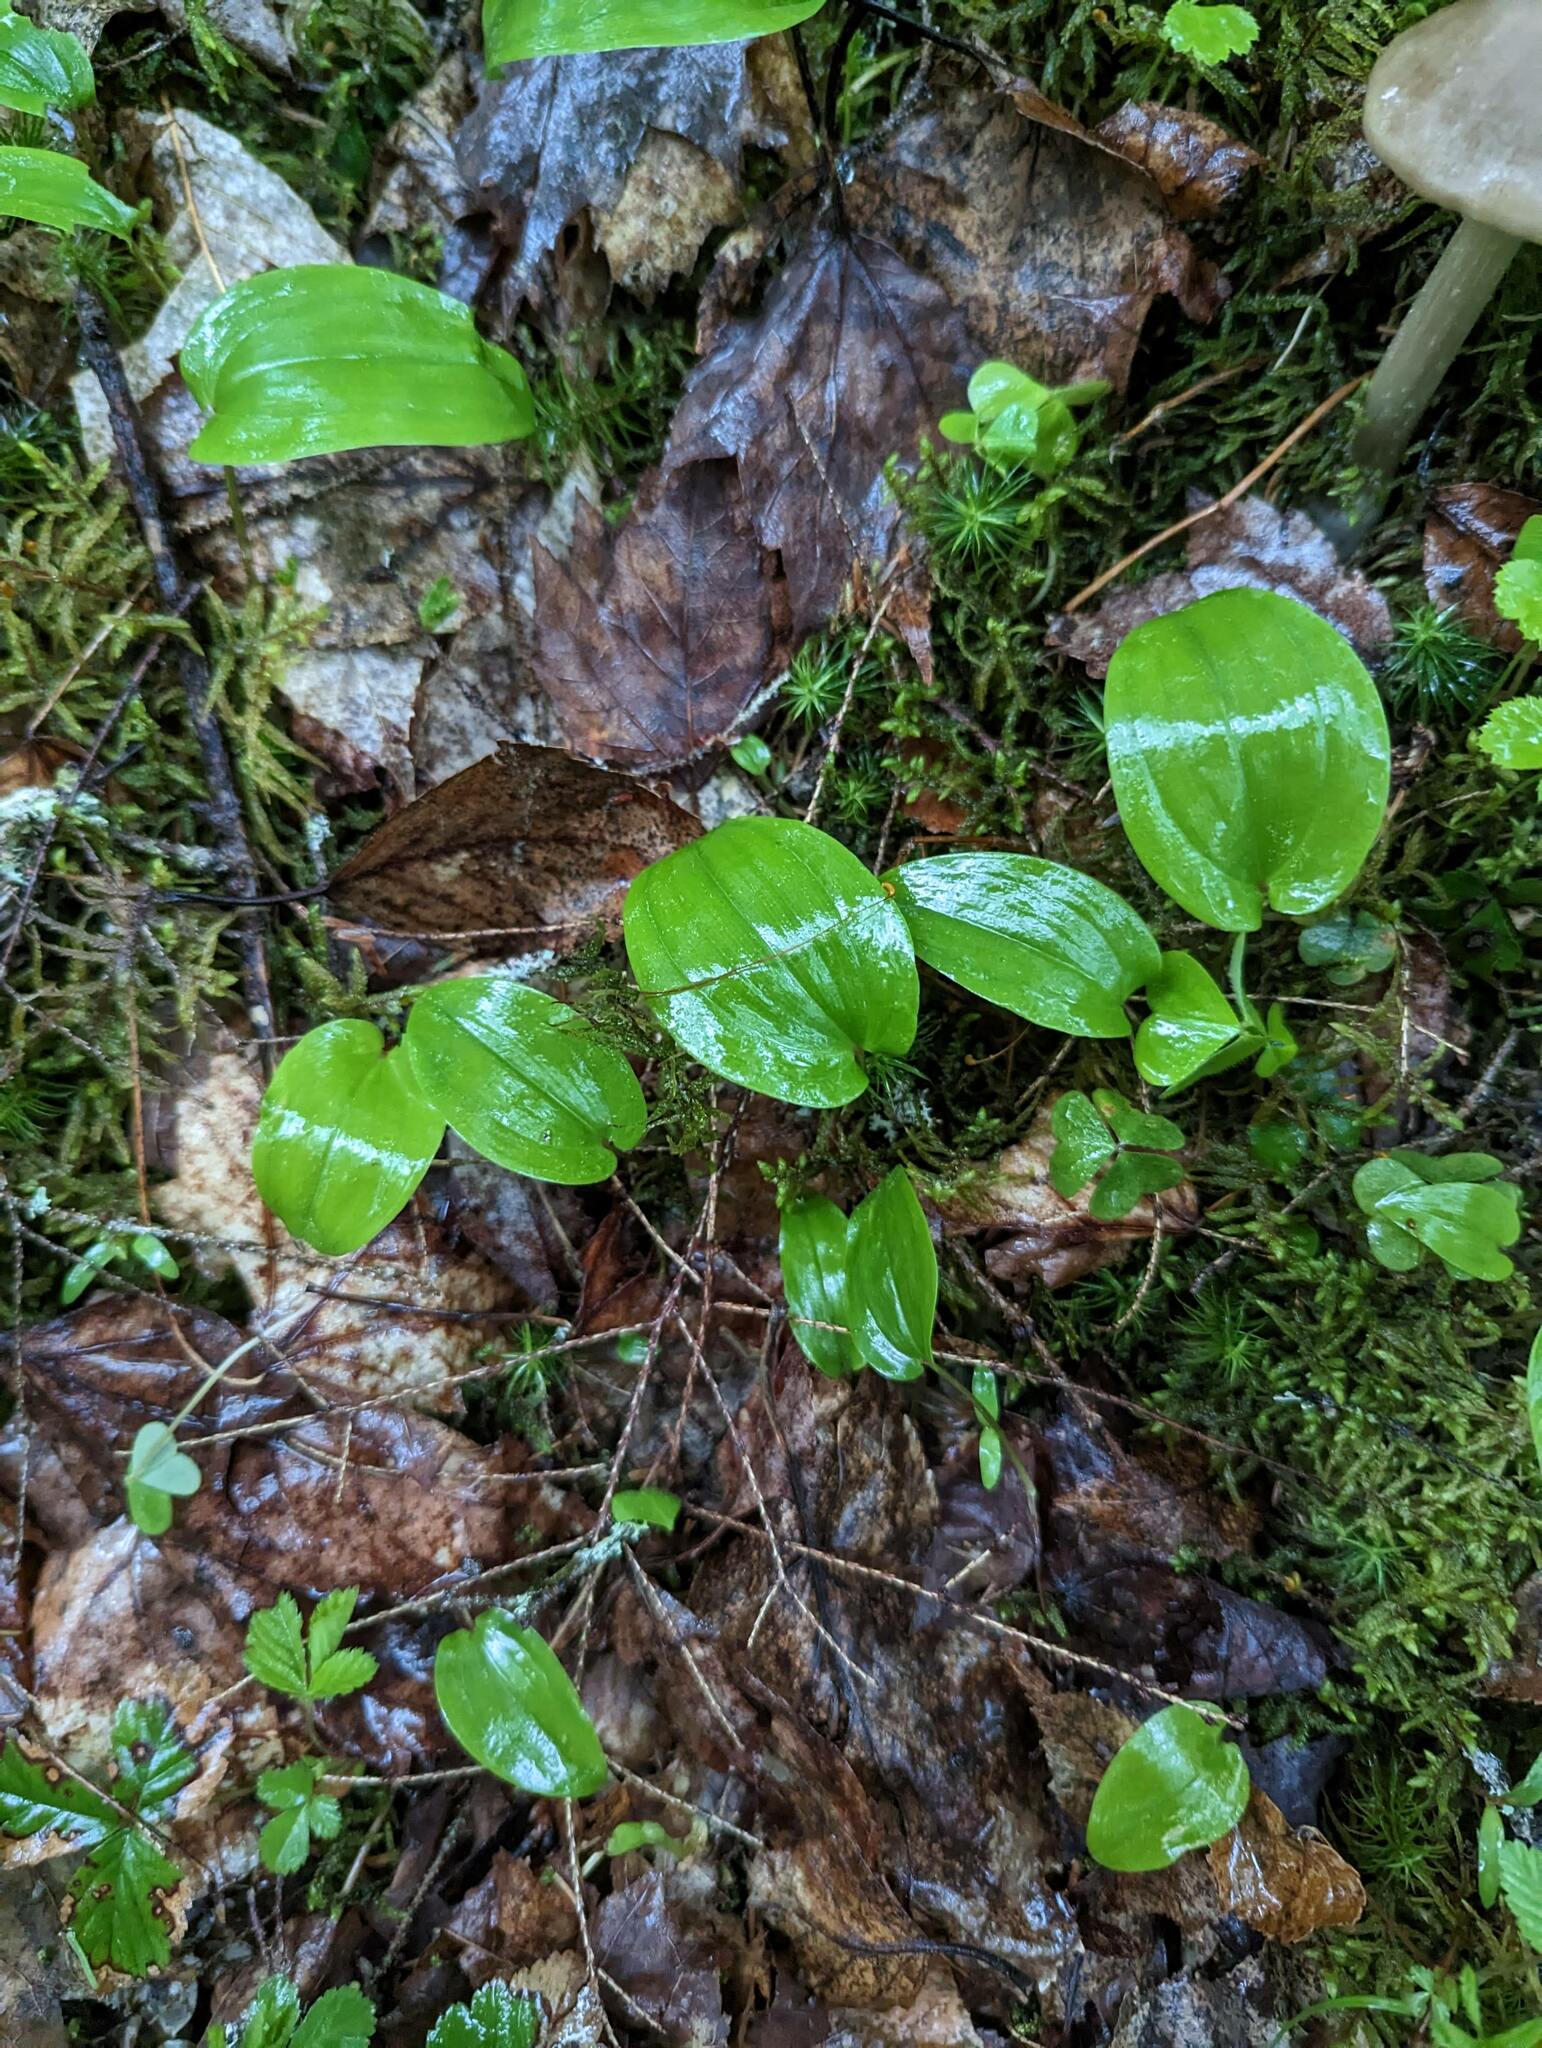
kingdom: Plantae
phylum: Tracheophyta
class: Liliopsida
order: Asparagales
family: Asparagaceae
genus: Maianthemum
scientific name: Maianthemum canadense
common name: False lily-of-the-valley
